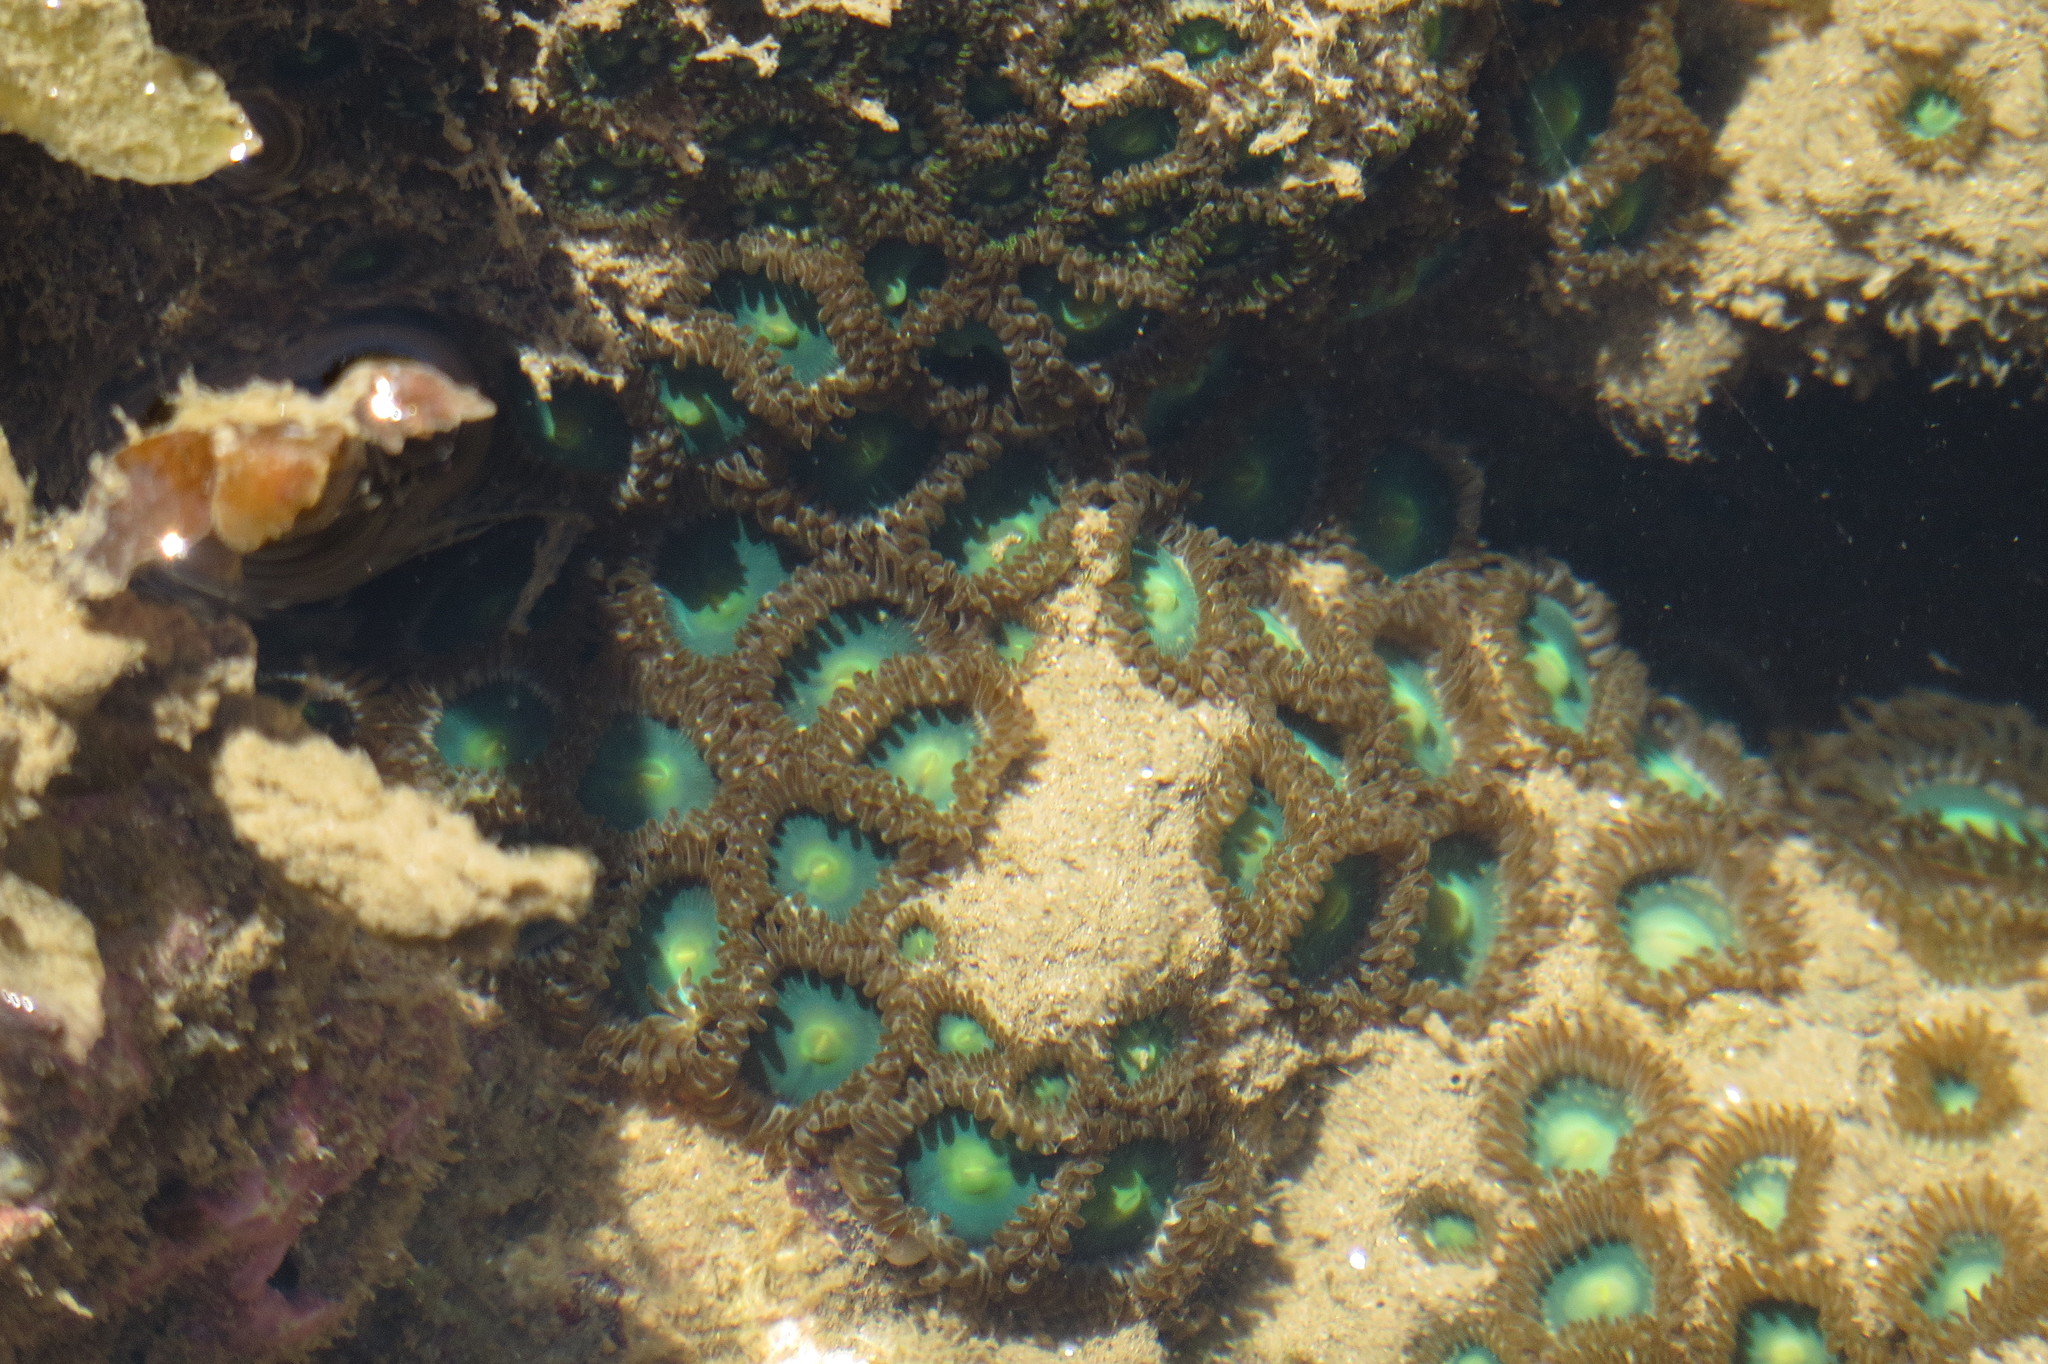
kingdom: Animalia
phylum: Cnidaria
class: Anthozoa
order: Zoantharia
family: Sphenopidae
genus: Palythoa
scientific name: Palythoa mutuki
